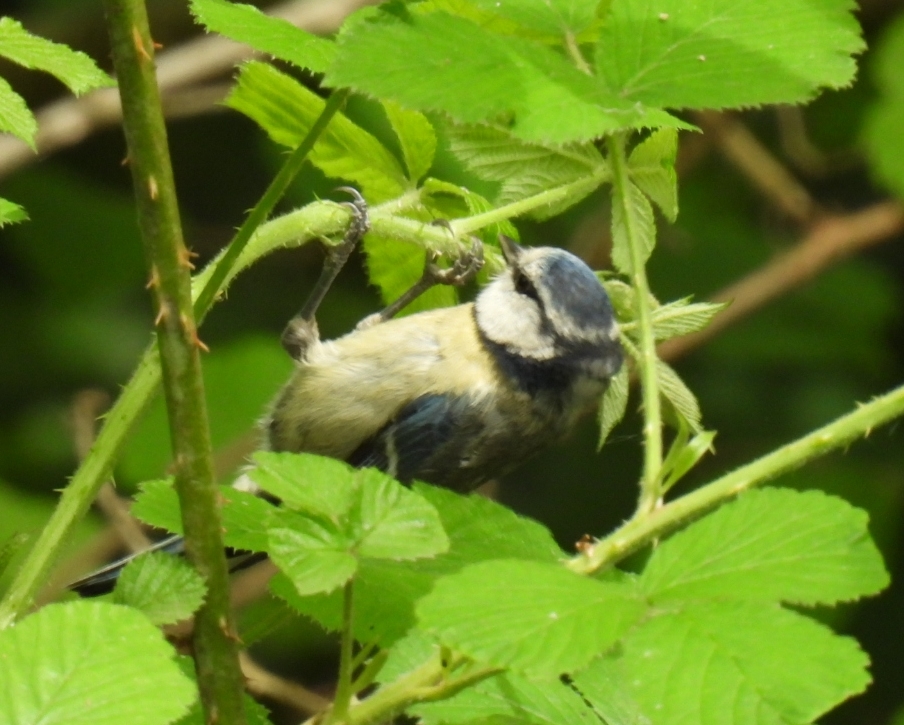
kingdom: Animalia
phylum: Chordata
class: Aves
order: Passeriformes
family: Paridae
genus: Cyanistes
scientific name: Cyanistes caeruleus
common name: Eurasian blue tit
